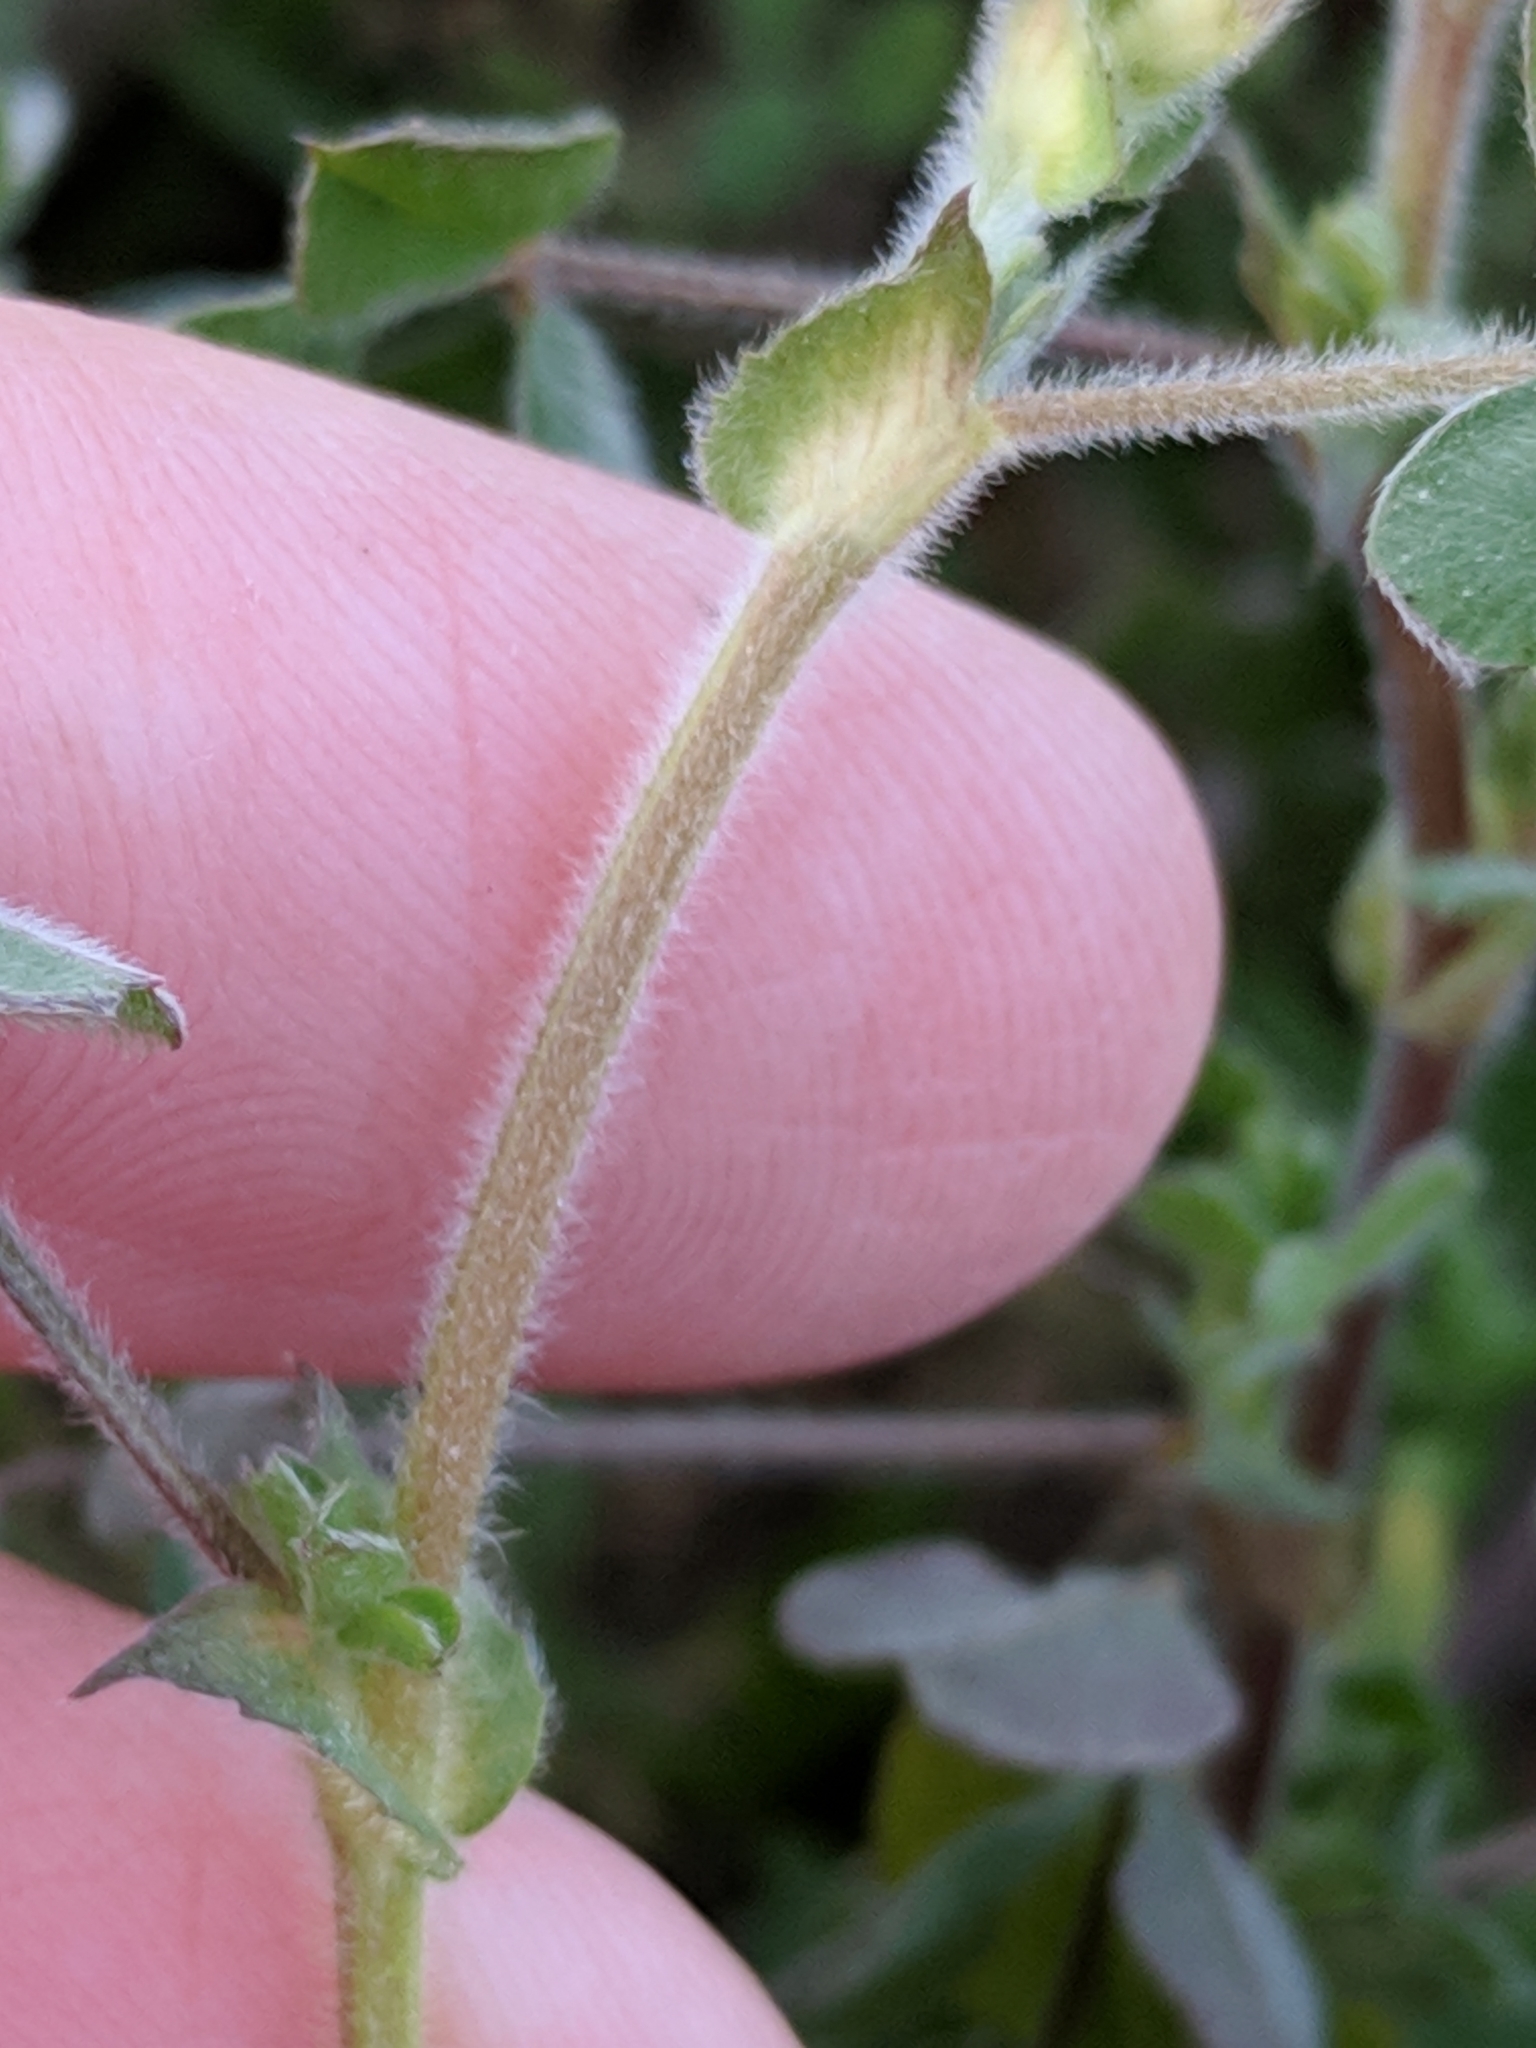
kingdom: Plantae
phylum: Tracheophyta
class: Magnoliopsida
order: Fabales
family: Fabaceae
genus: Medicago
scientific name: Medicago minima
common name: Little bur-clover
